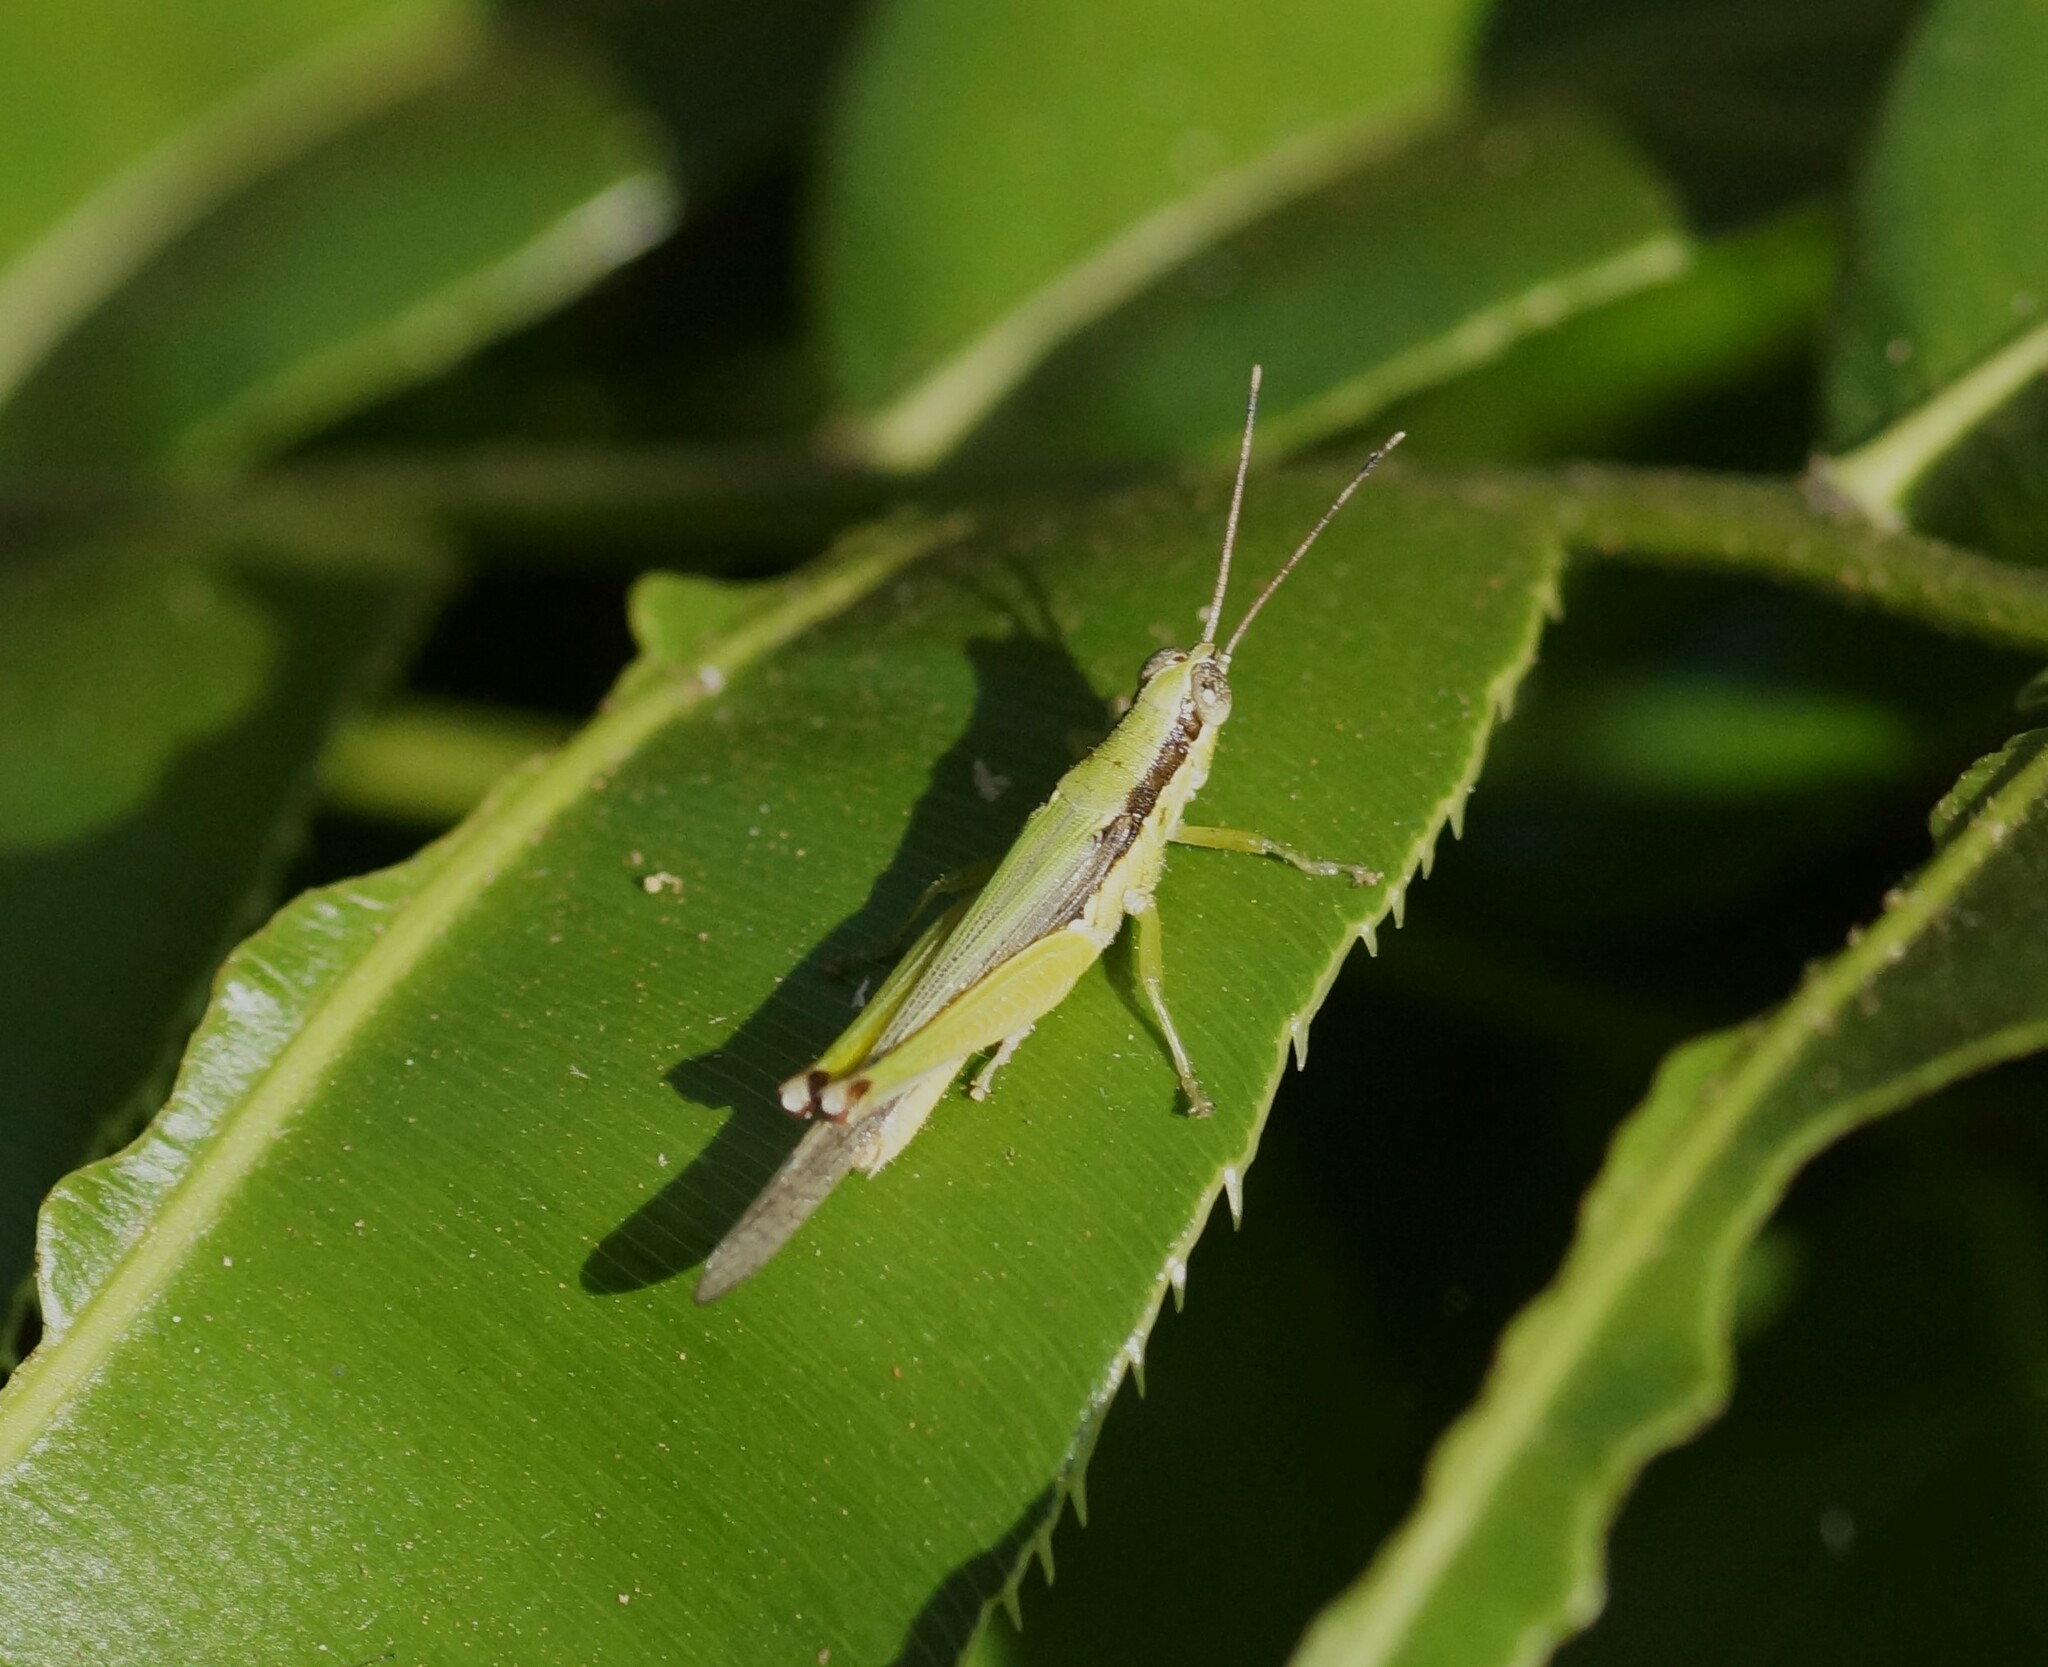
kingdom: Animalia
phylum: Arthropoda
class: Insecta
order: Orthoptera
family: Acrididae
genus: Gesonula
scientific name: Gesonula mundata
